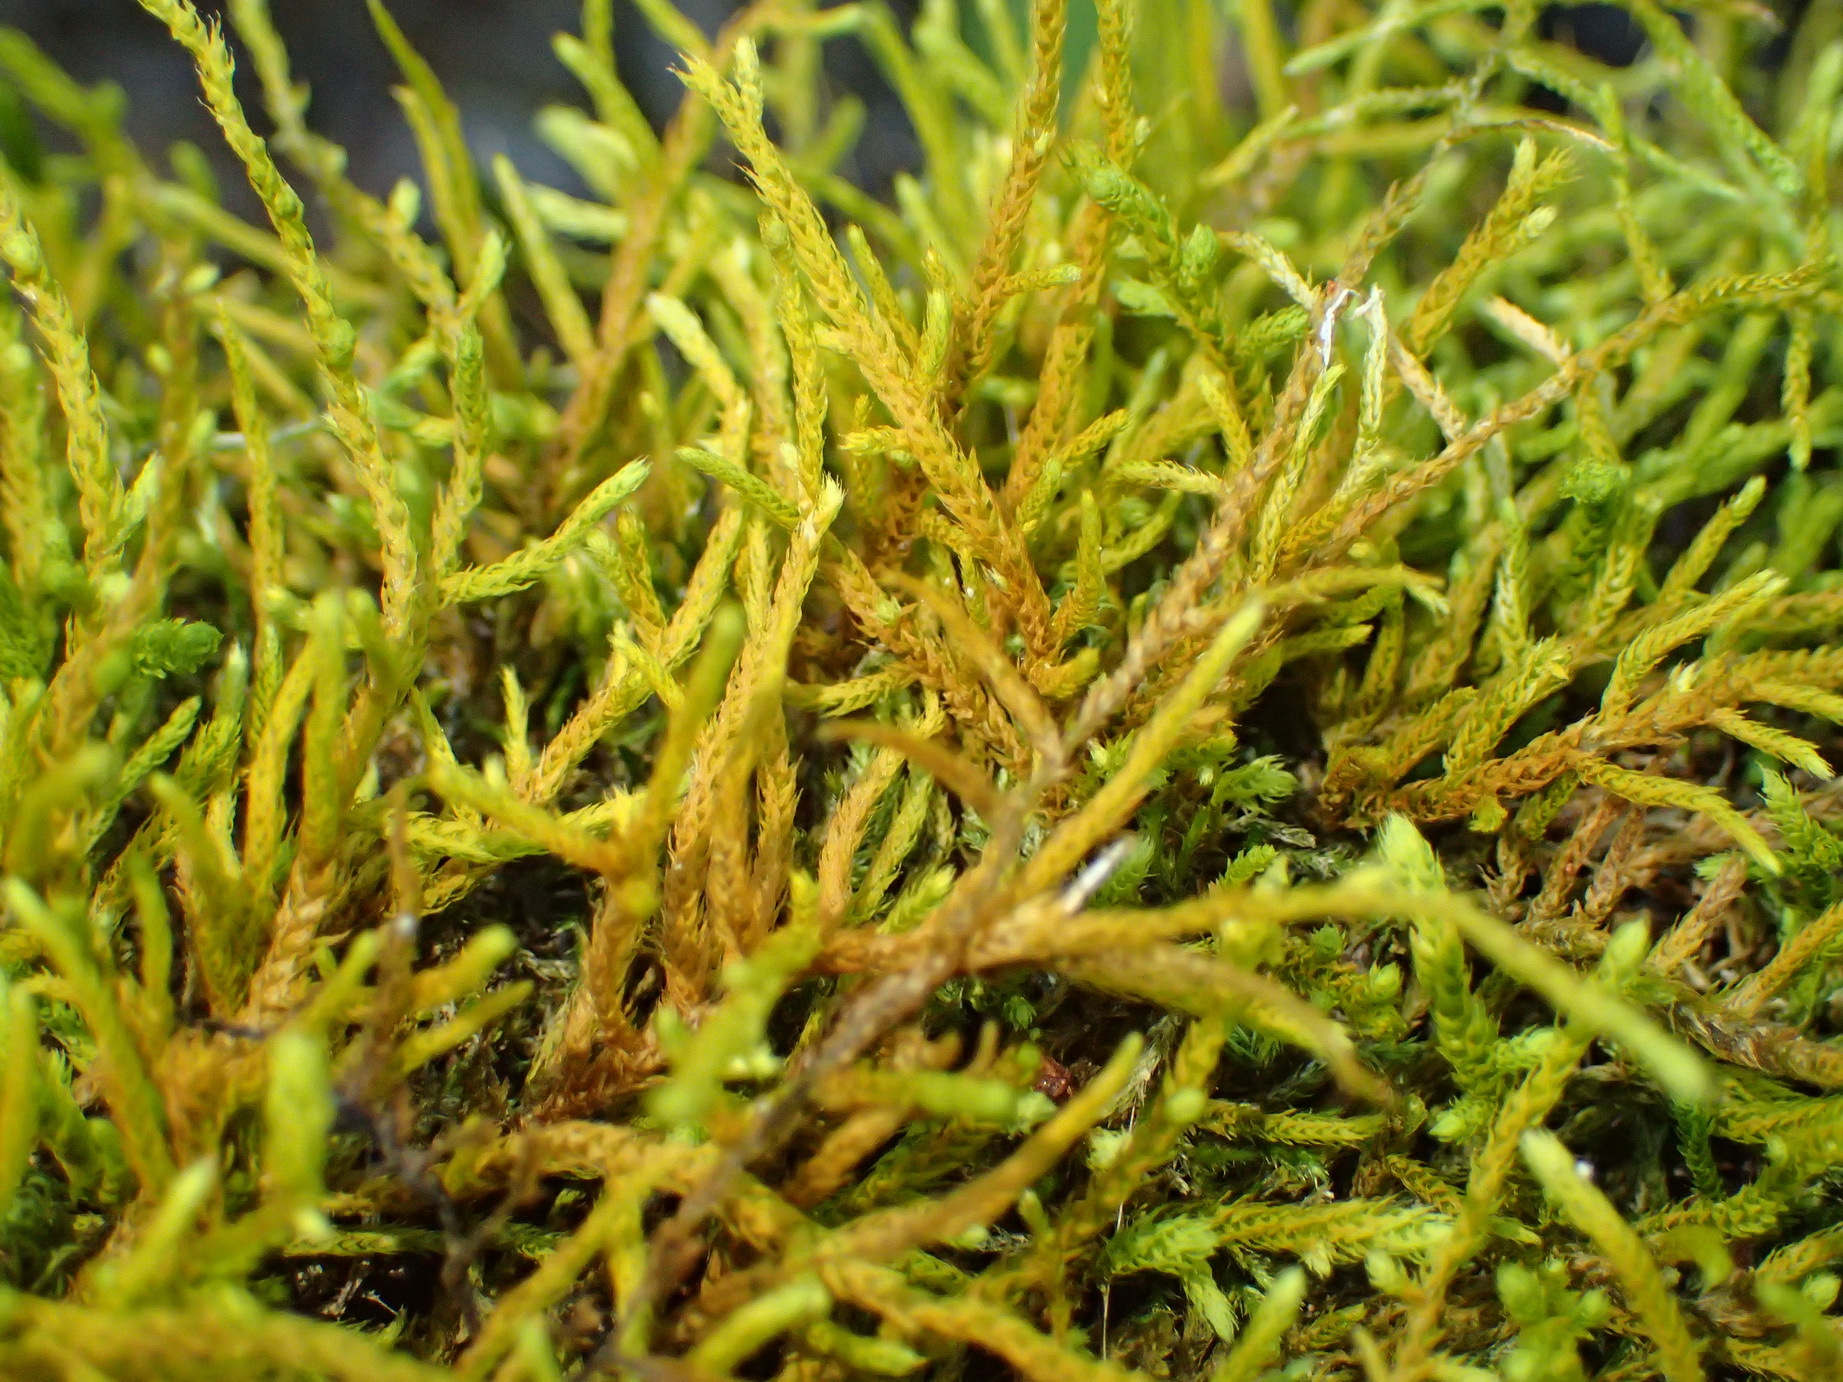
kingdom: Plantae
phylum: Bryophyta
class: Bryopsida
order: Hypnales
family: Meteoriaceae
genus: Papillaria
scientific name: Papillaria africana
